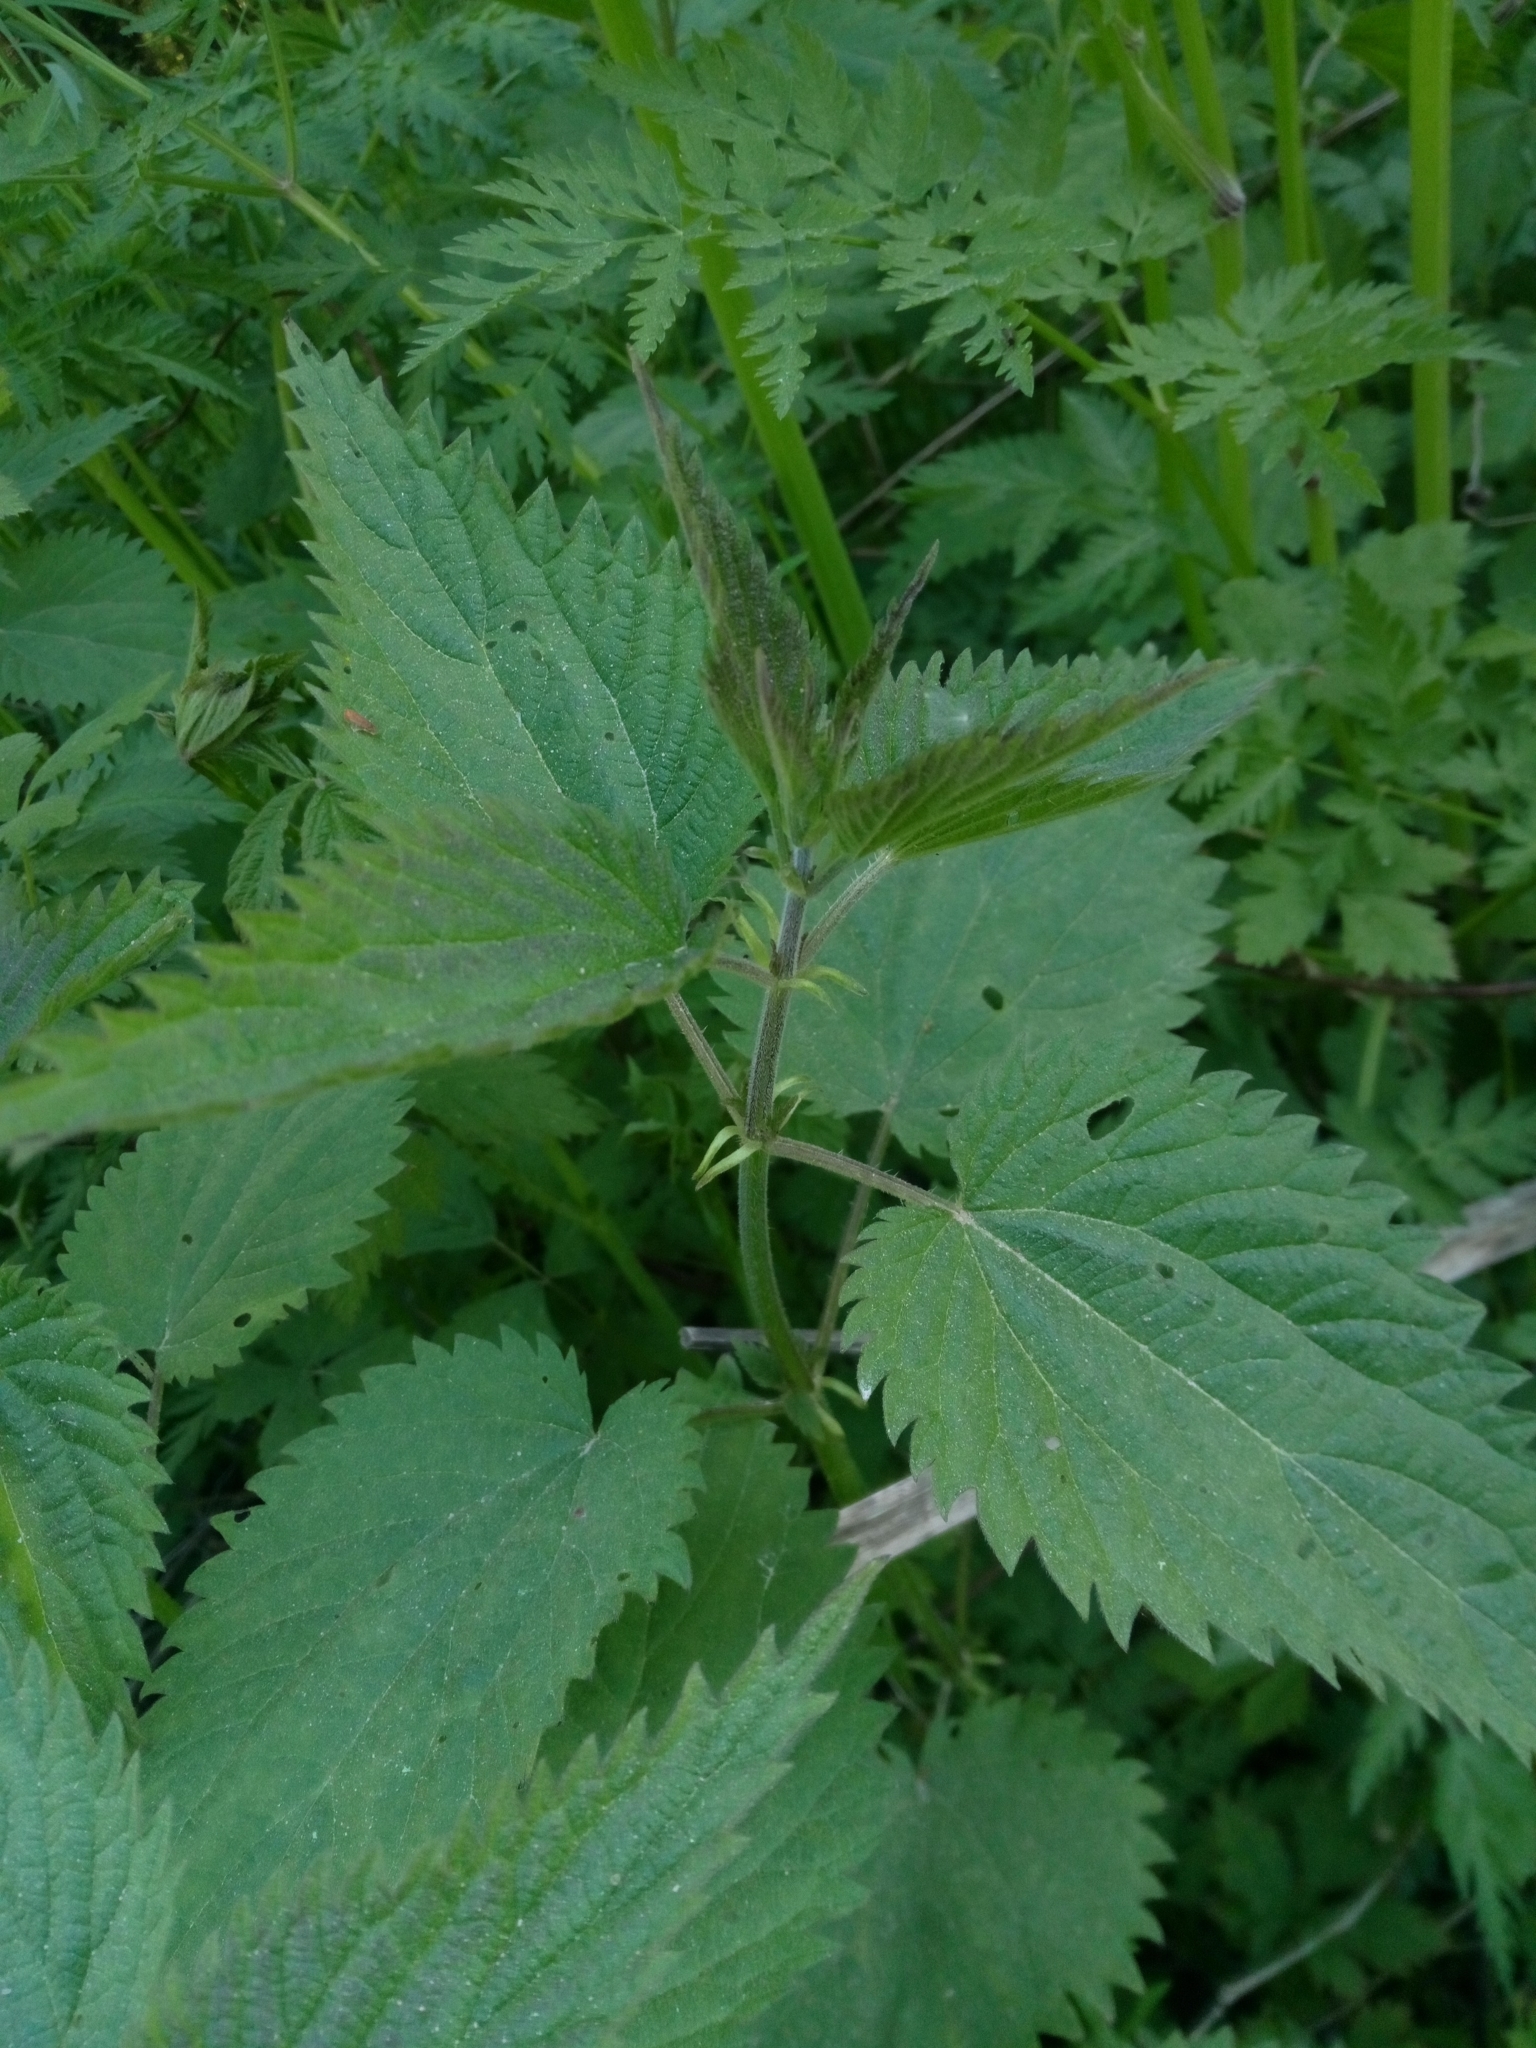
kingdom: Plantae
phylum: Tracheophyta
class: Magnoliopsida
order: Rosales
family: Urticaceae
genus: Urtica
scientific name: Urtica dioica
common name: Common nettle
